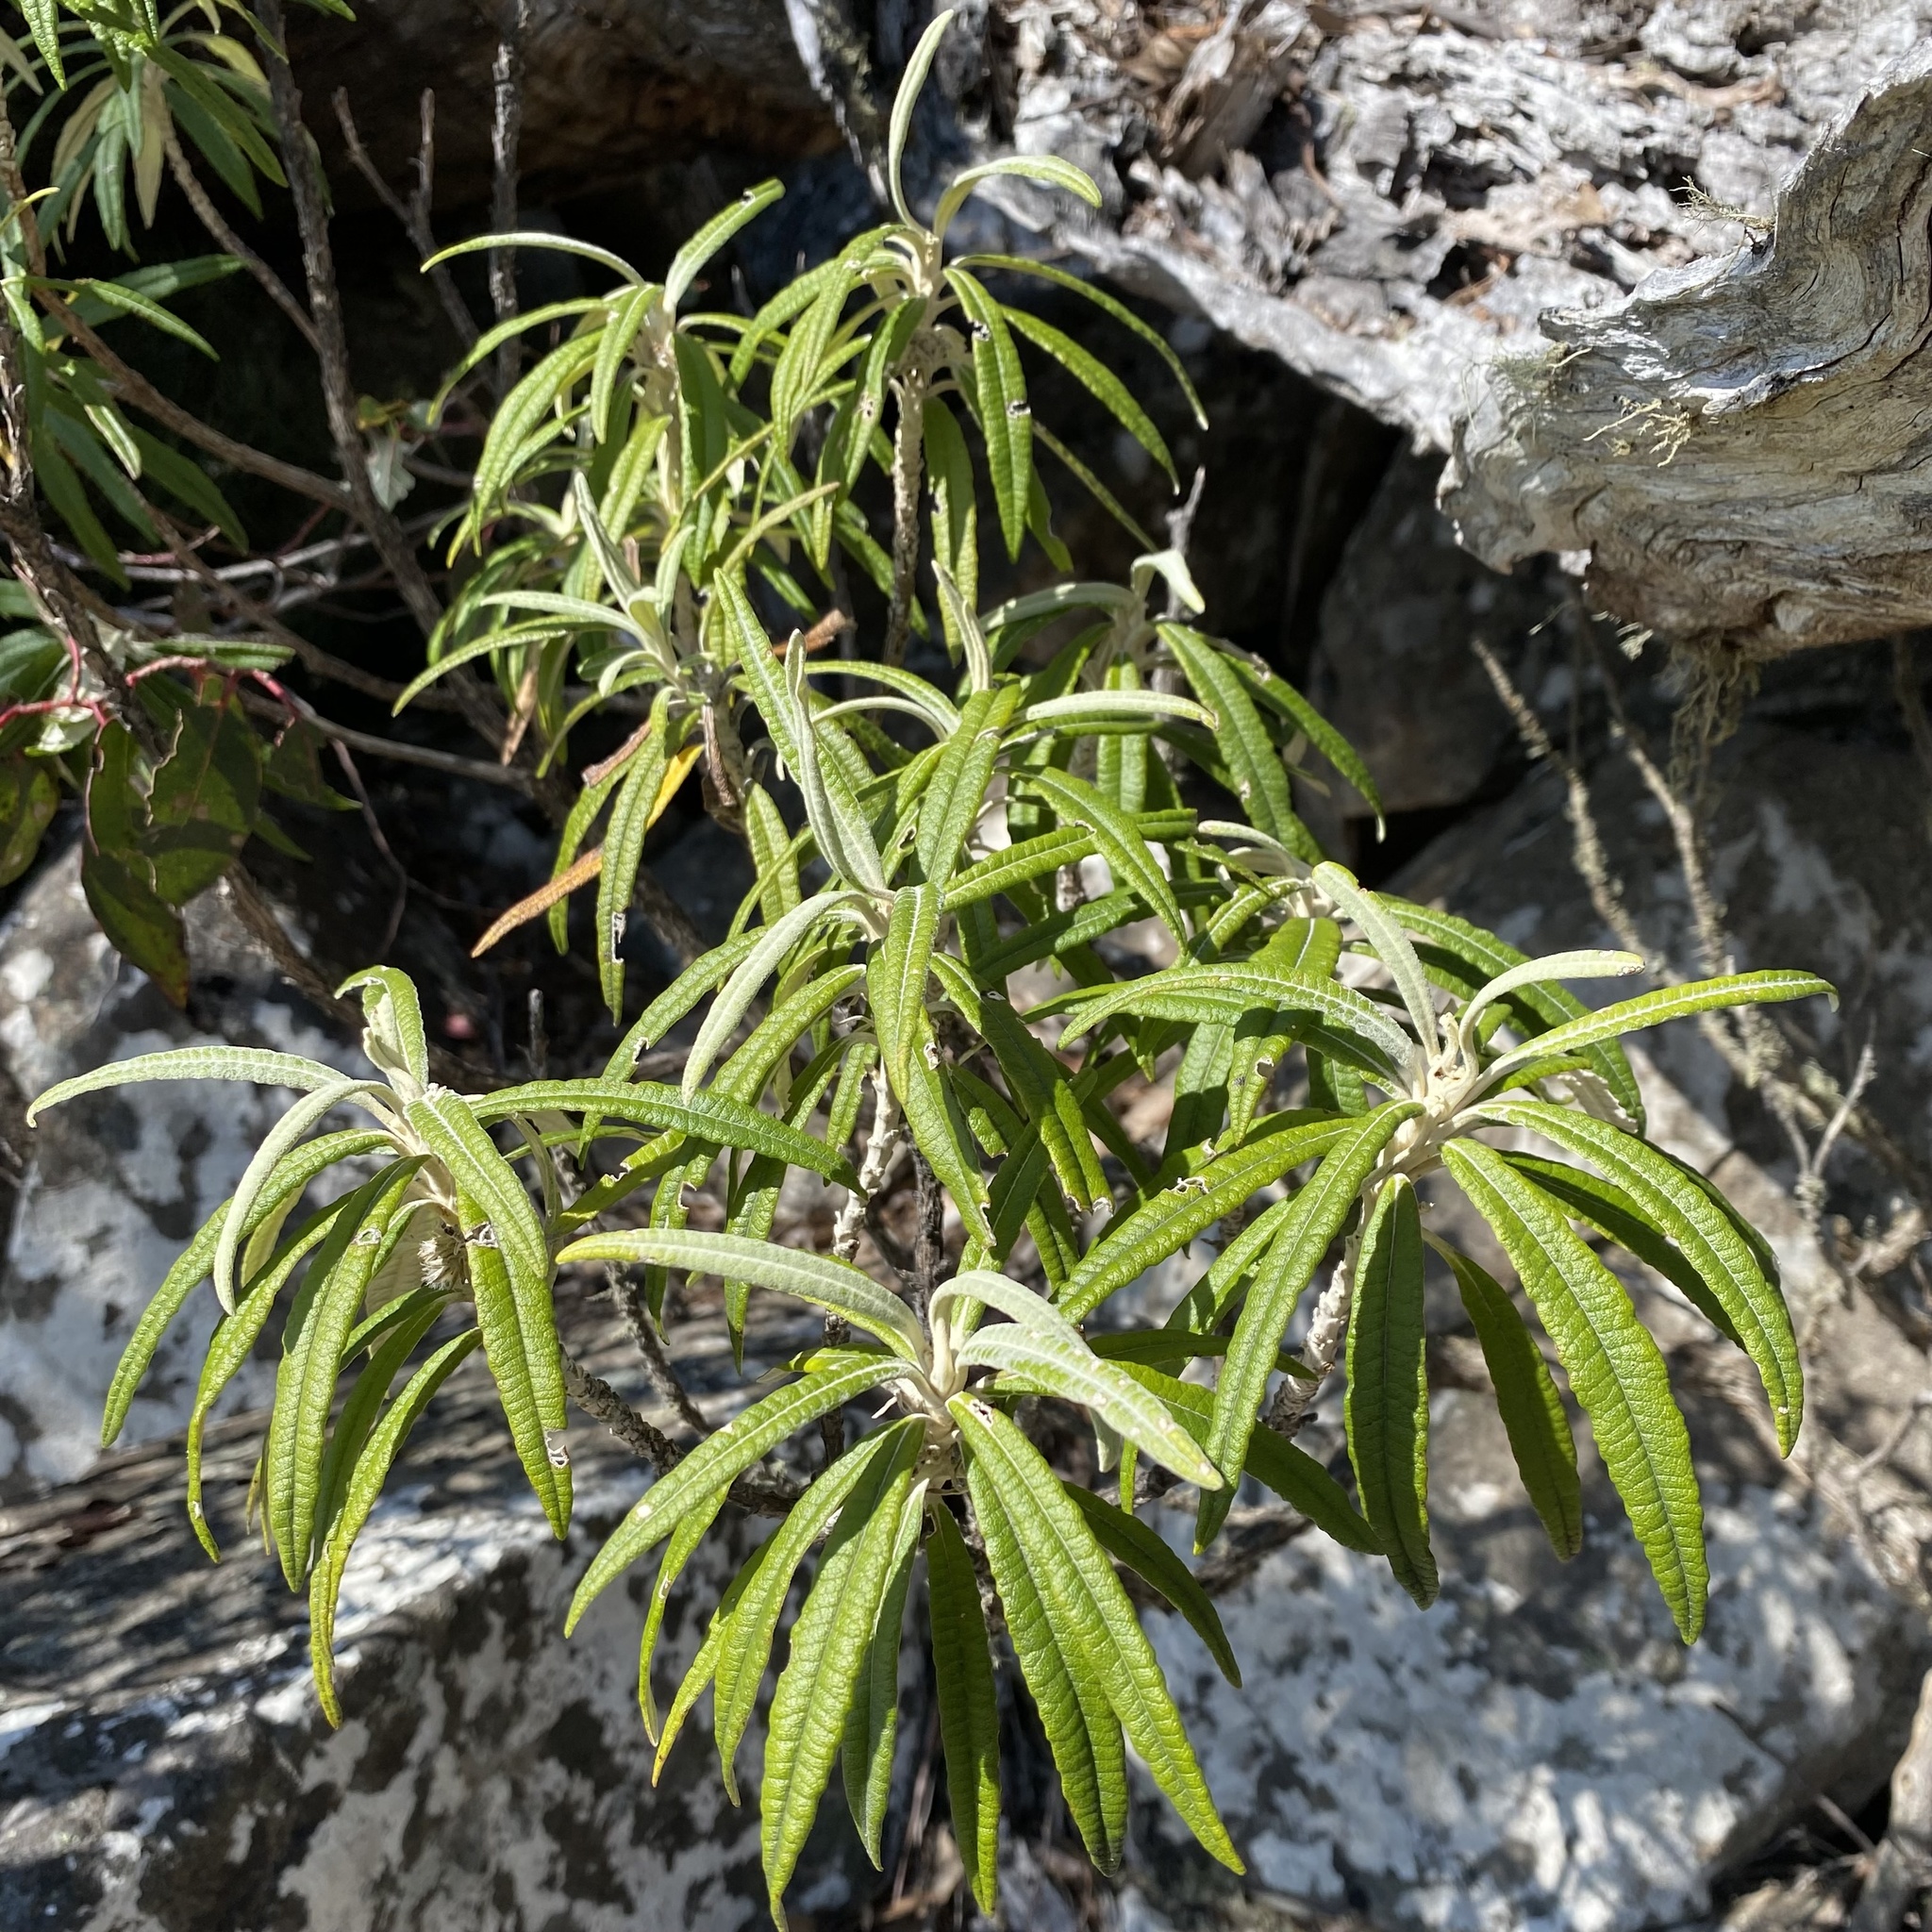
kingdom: Plantae
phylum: Tracheophyta
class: Magnoliopsida
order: Asterales
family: Asteraceae
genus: Bedfordia
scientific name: Bedfordia salicina
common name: Blanketleaf
